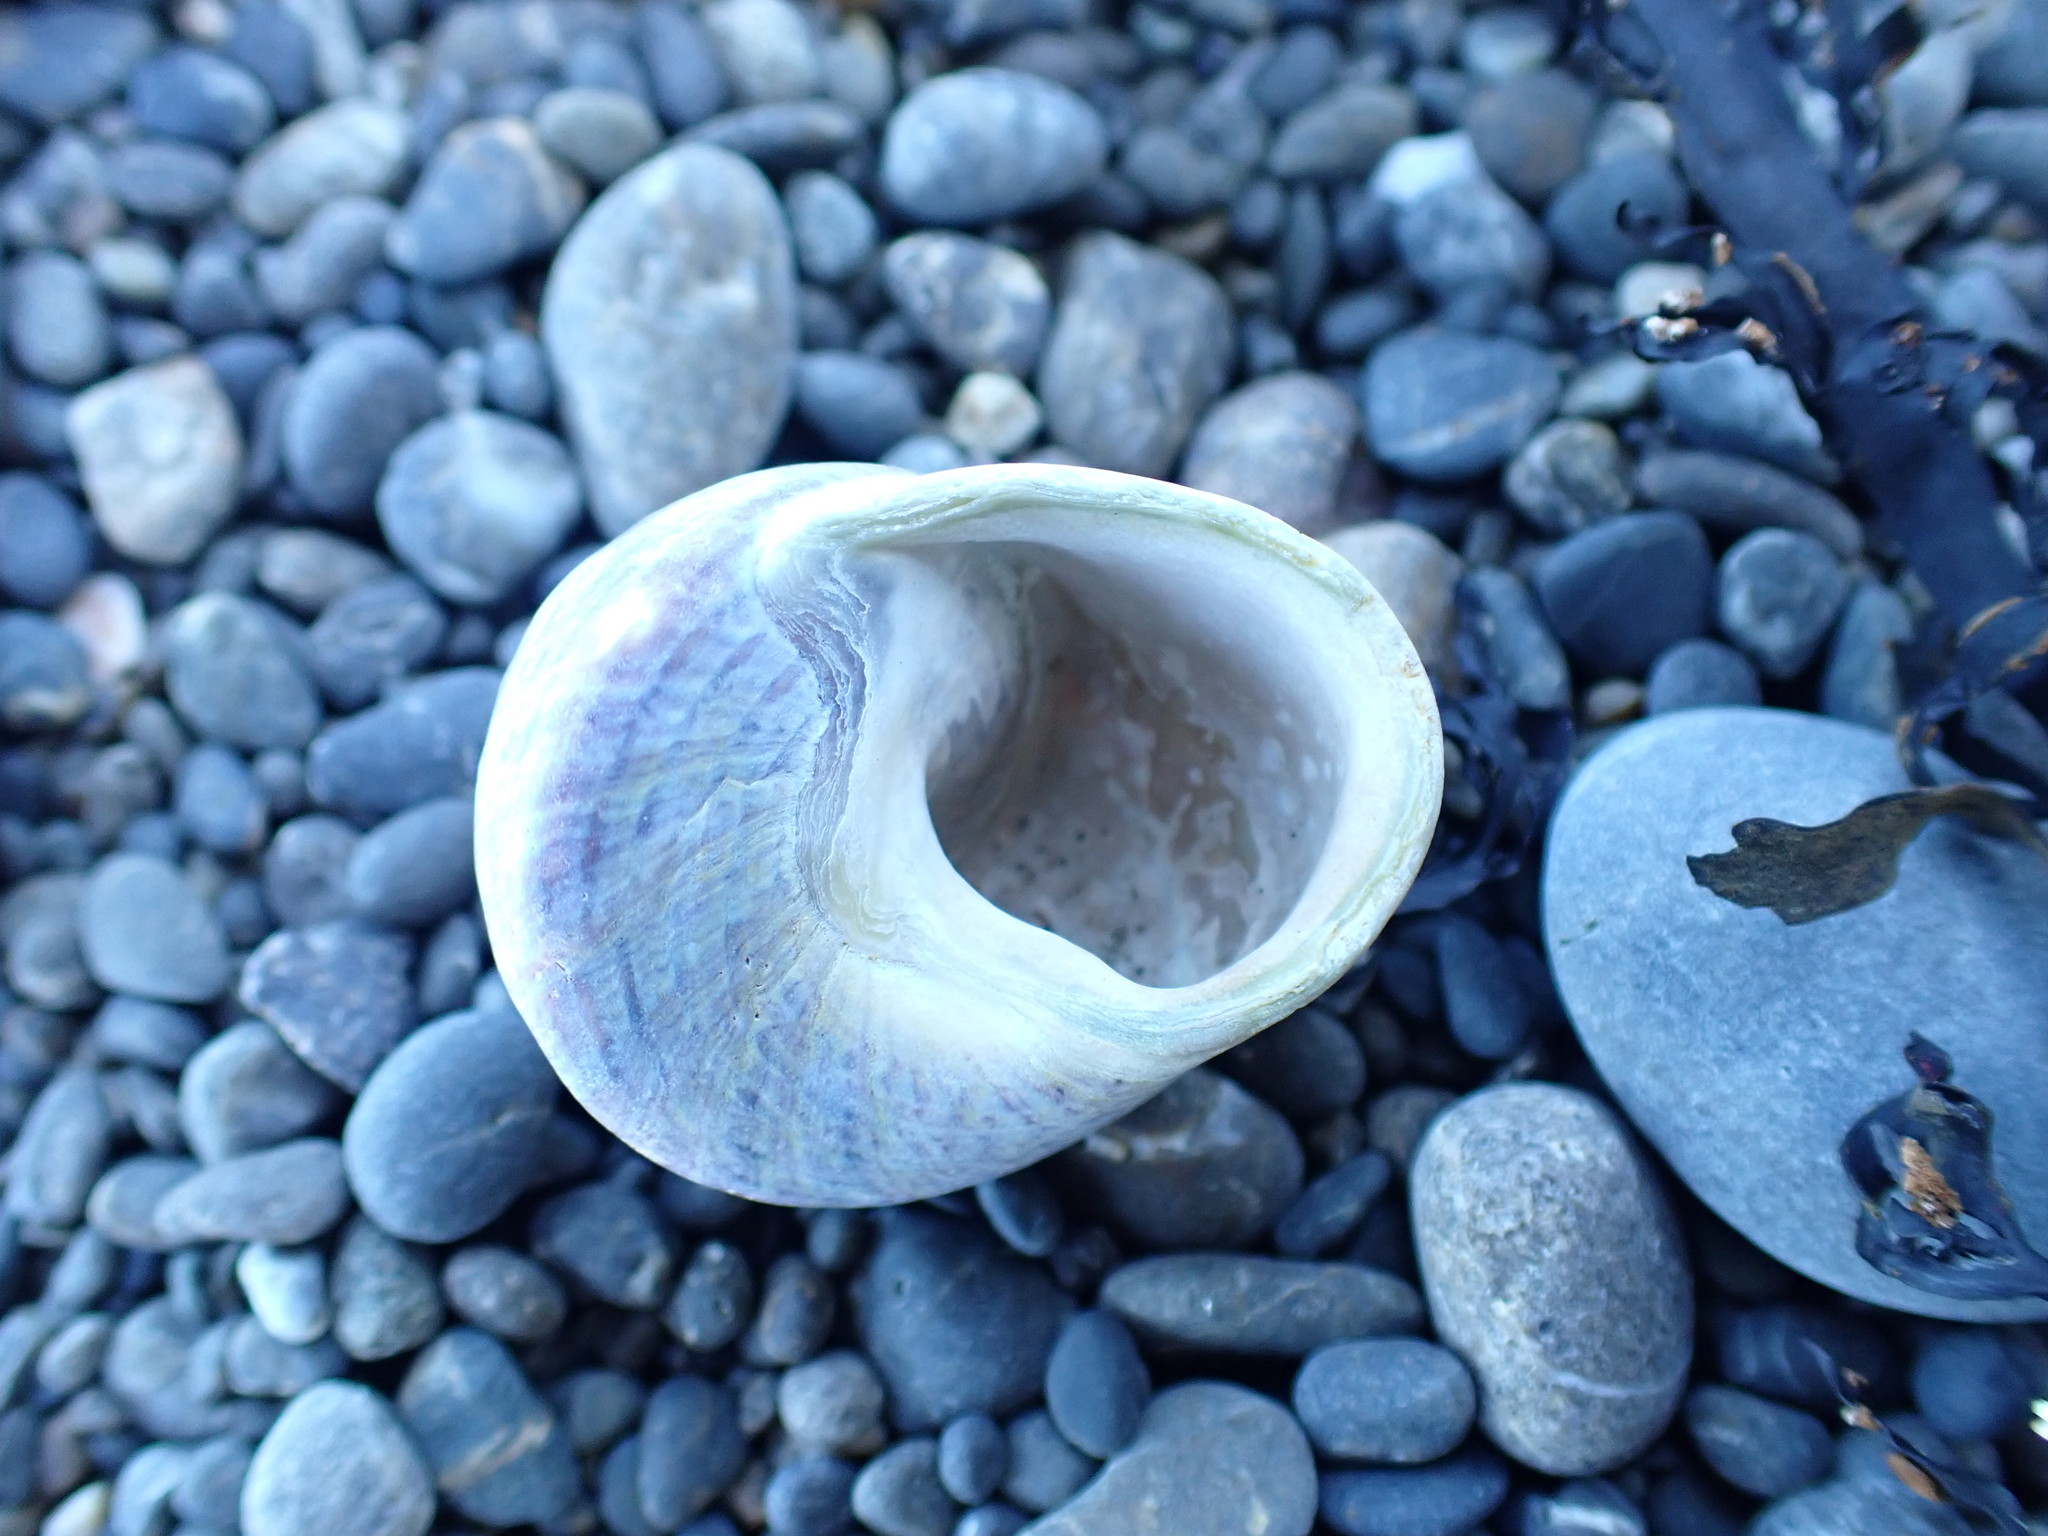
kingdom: Animalia
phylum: Mollusca
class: Gastropoda
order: Trochida
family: Trochidae
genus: Cantharidus
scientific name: Cantharidus opalus
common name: Opal jewel topsnail
